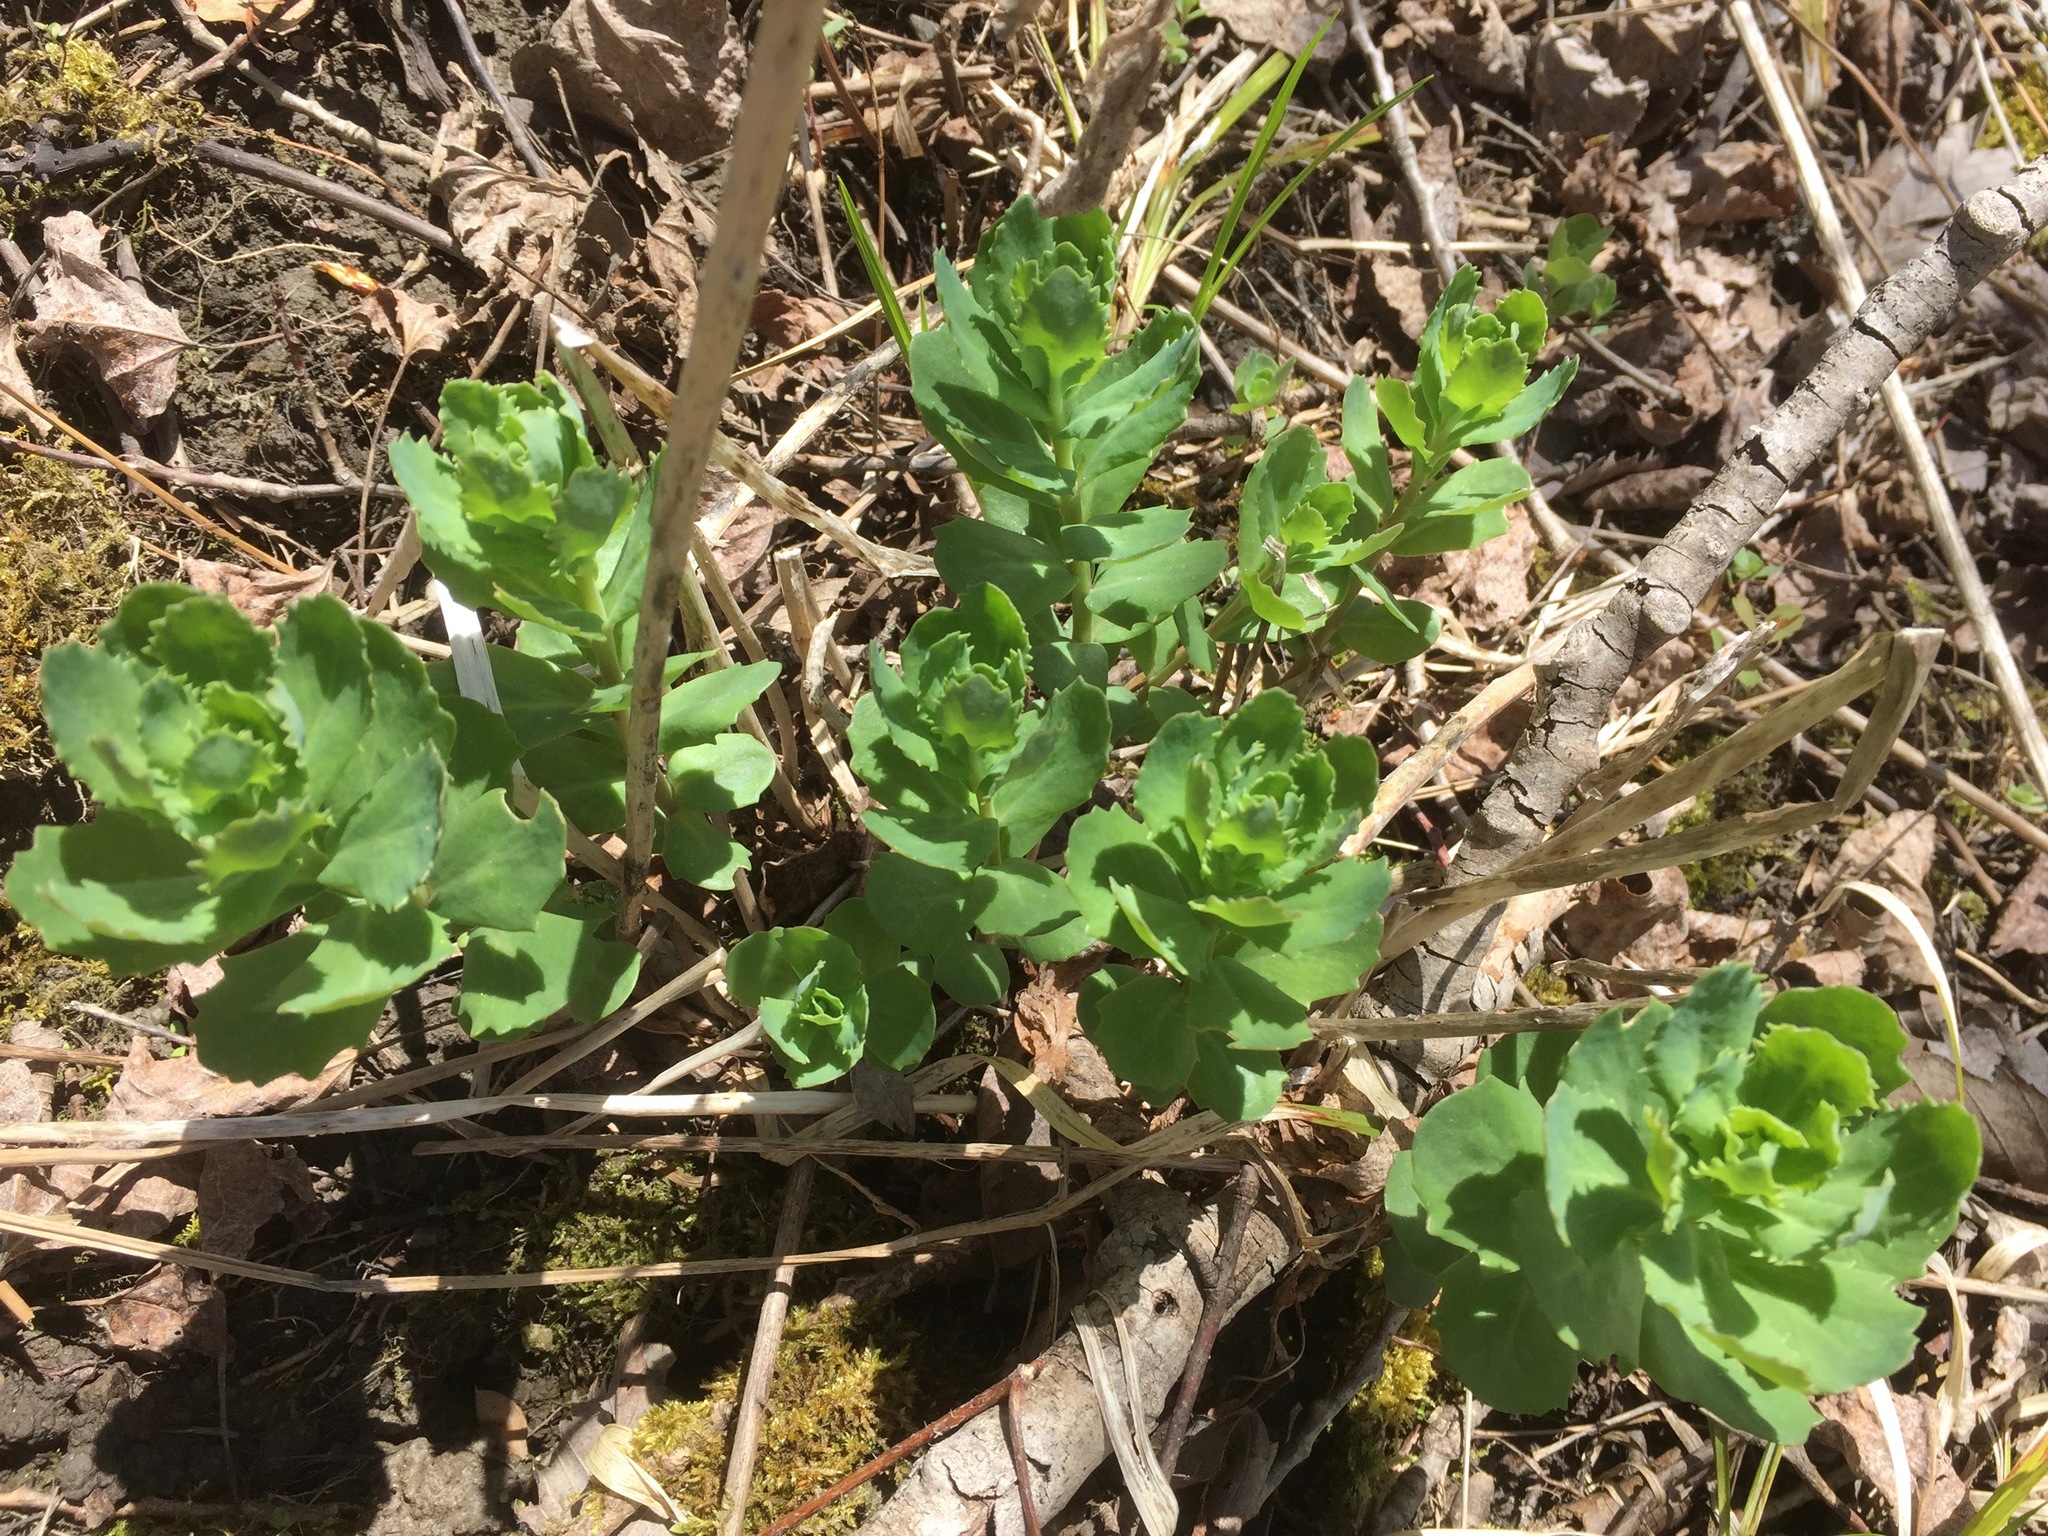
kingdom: Plantae
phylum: Tracheophyta
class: Magnoliopsida
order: Saxifragales
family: Crassulaceae
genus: Hylotelephium
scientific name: Hylotelephium telephium
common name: Live-forever
